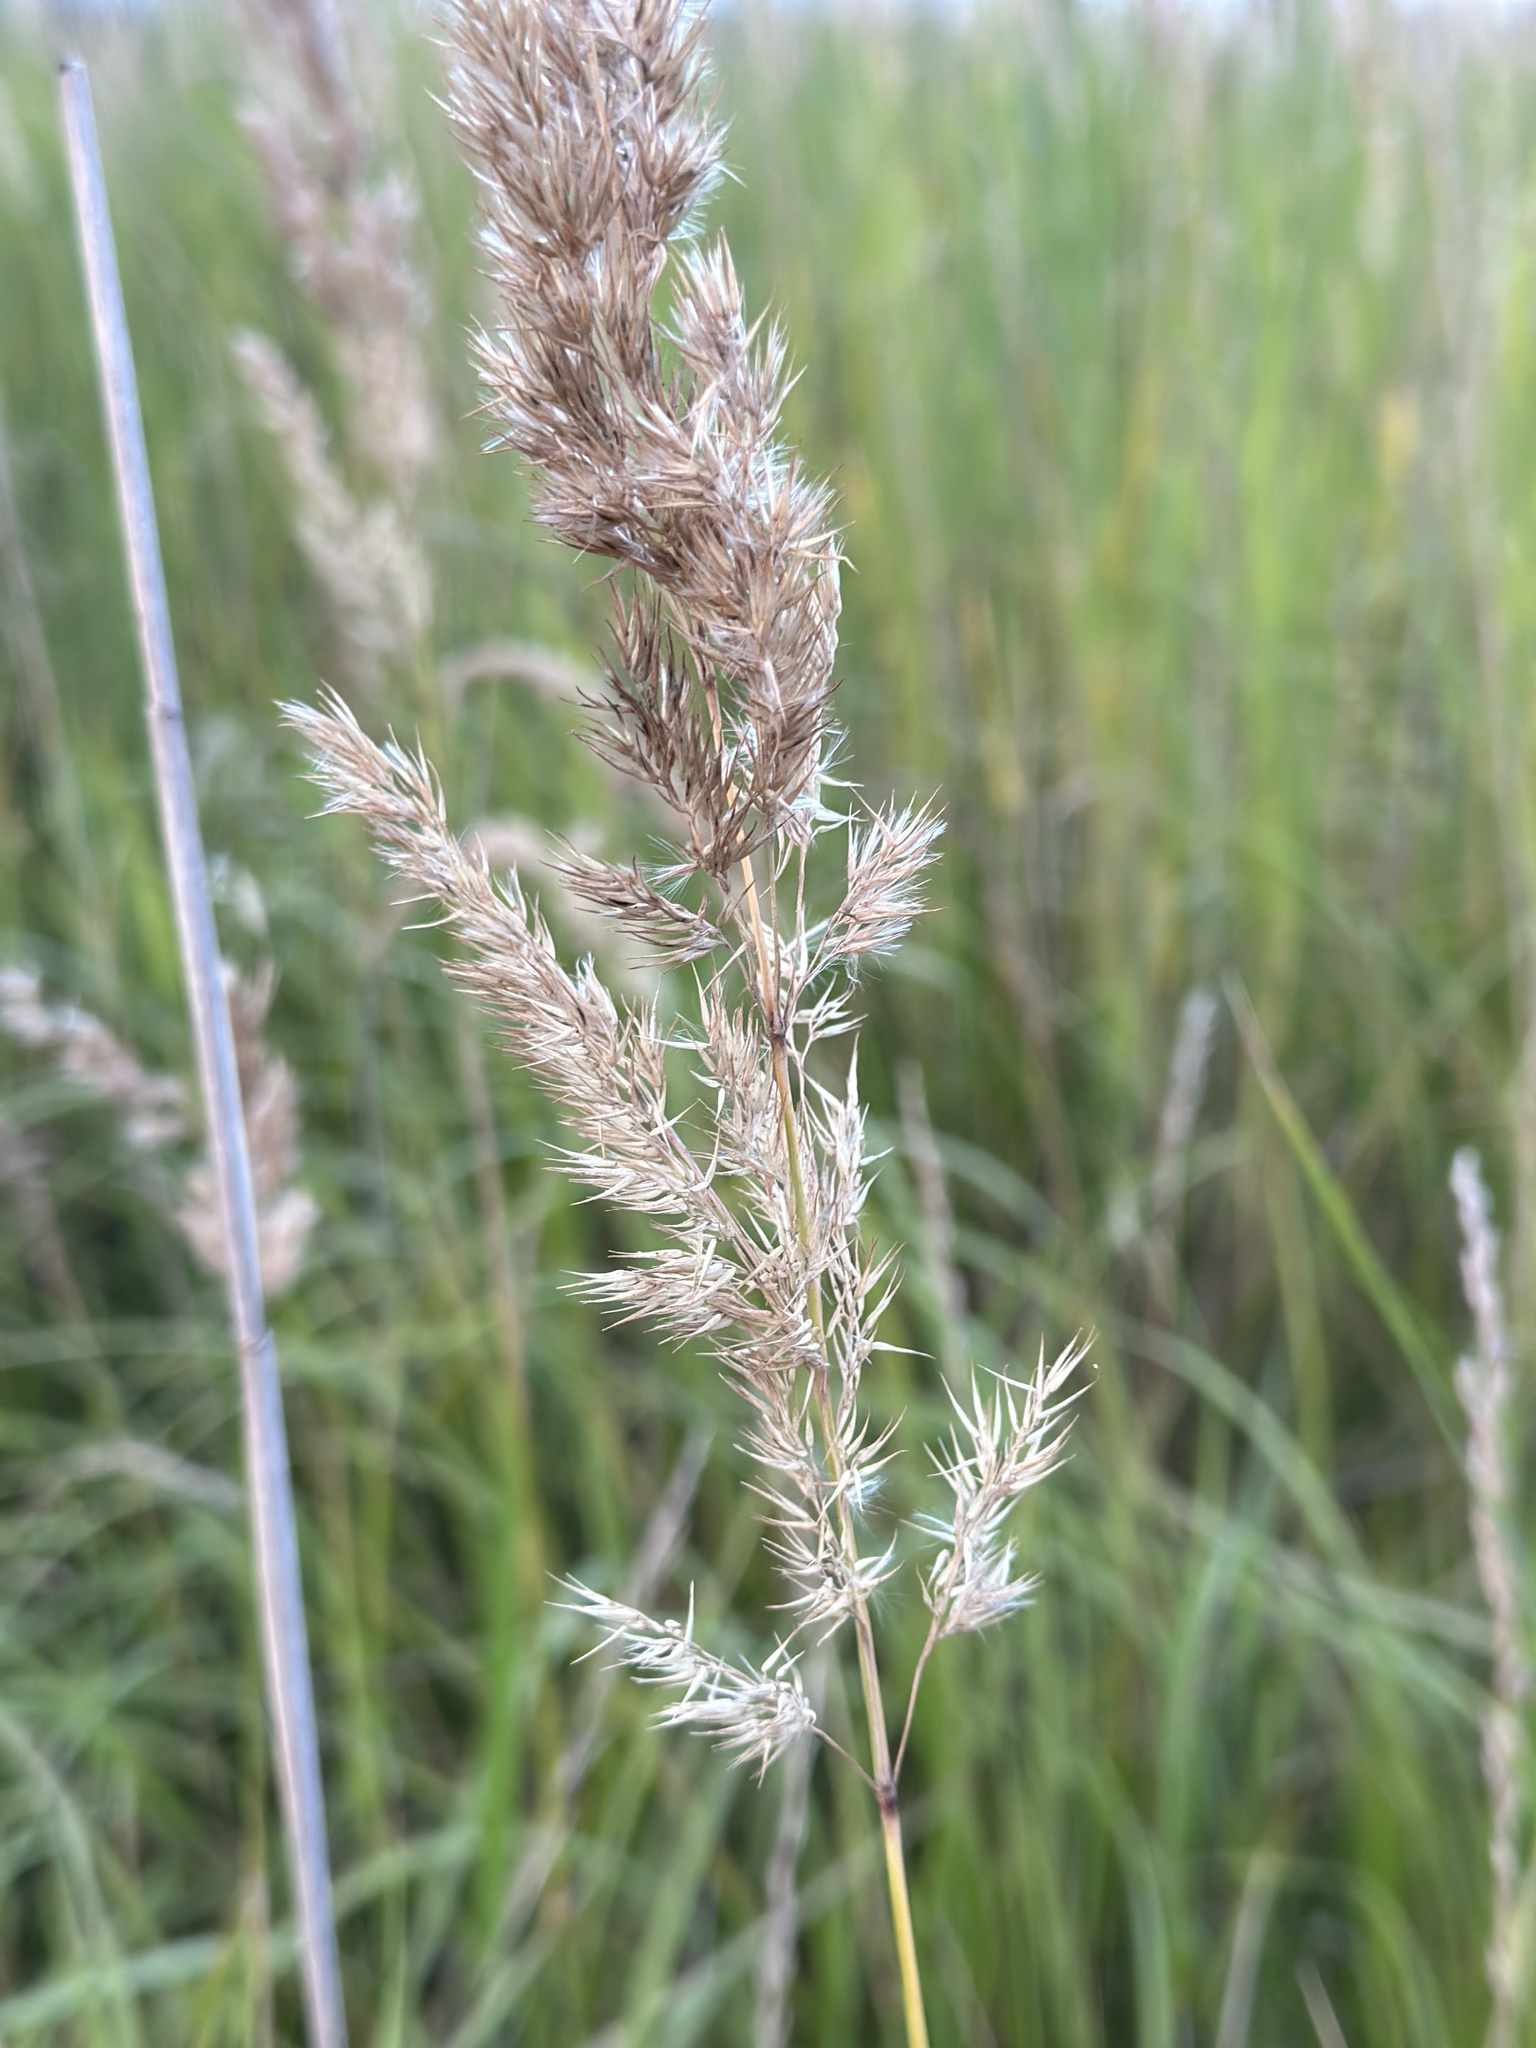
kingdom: Plantae
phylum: Tracheophyta
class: Liliopsida
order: Poales
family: Poaceae
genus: Calamagrostis
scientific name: Calamagrostis epigejos
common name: Wood small-reed
